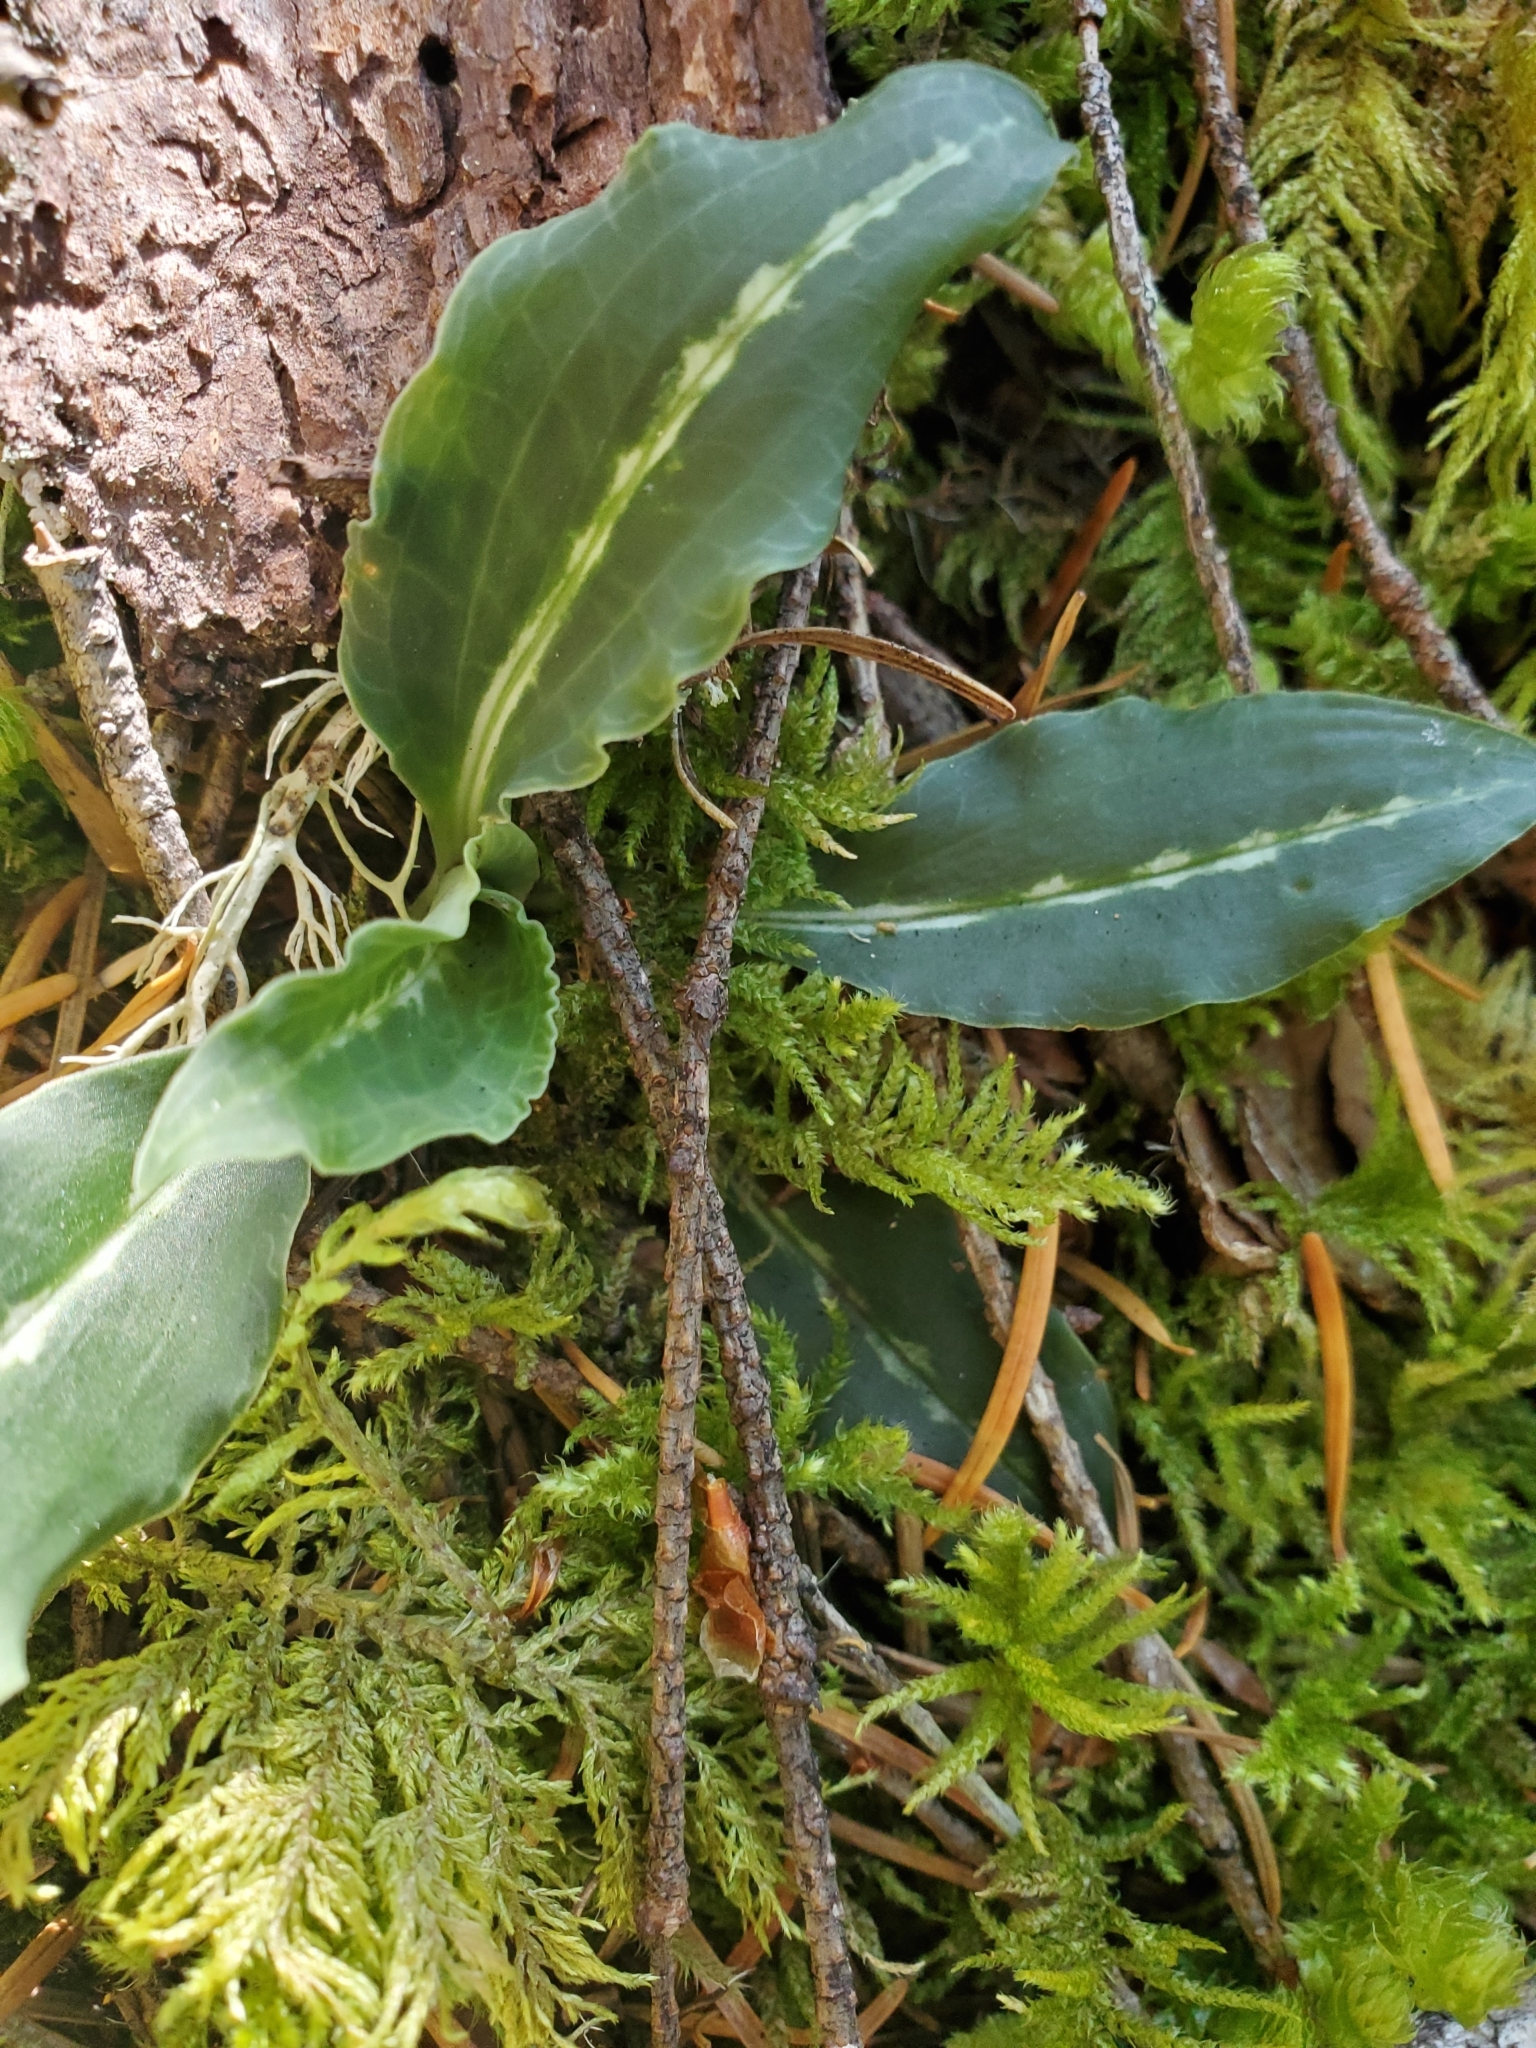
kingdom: Plantae
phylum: Tracheophyta
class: Liliopsida
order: Asparagales
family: Orchidaceae
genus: Goodyera
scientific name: Goodyera oblongifolia
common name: Giant rattlesnake-plantain
